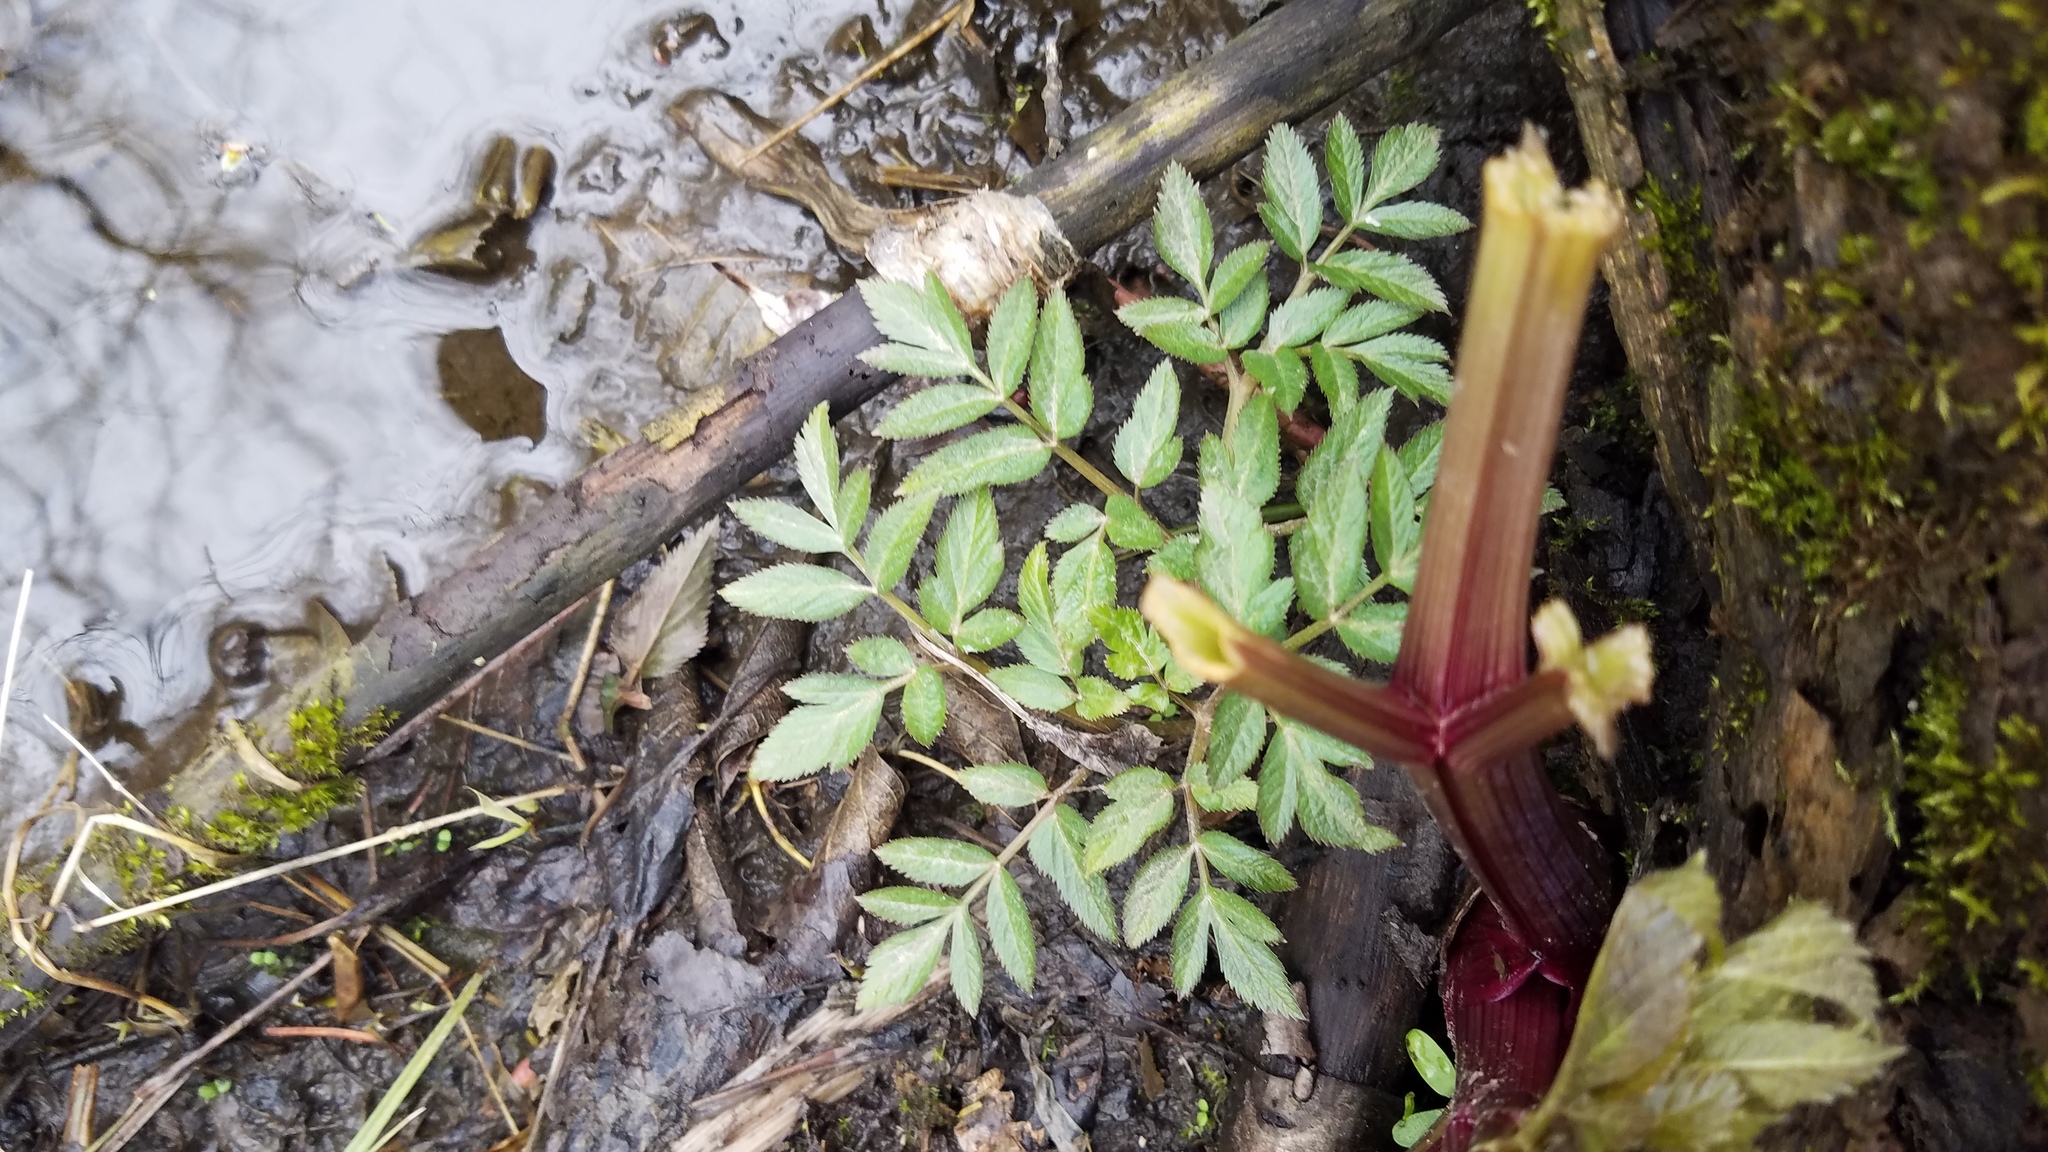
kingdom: Plantae
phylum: Tracheophyta
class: Magnoliopsida
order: Apiales
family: Apiaceae
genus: Angelica
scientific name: Angelica atropurpurea
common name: Great angelica
